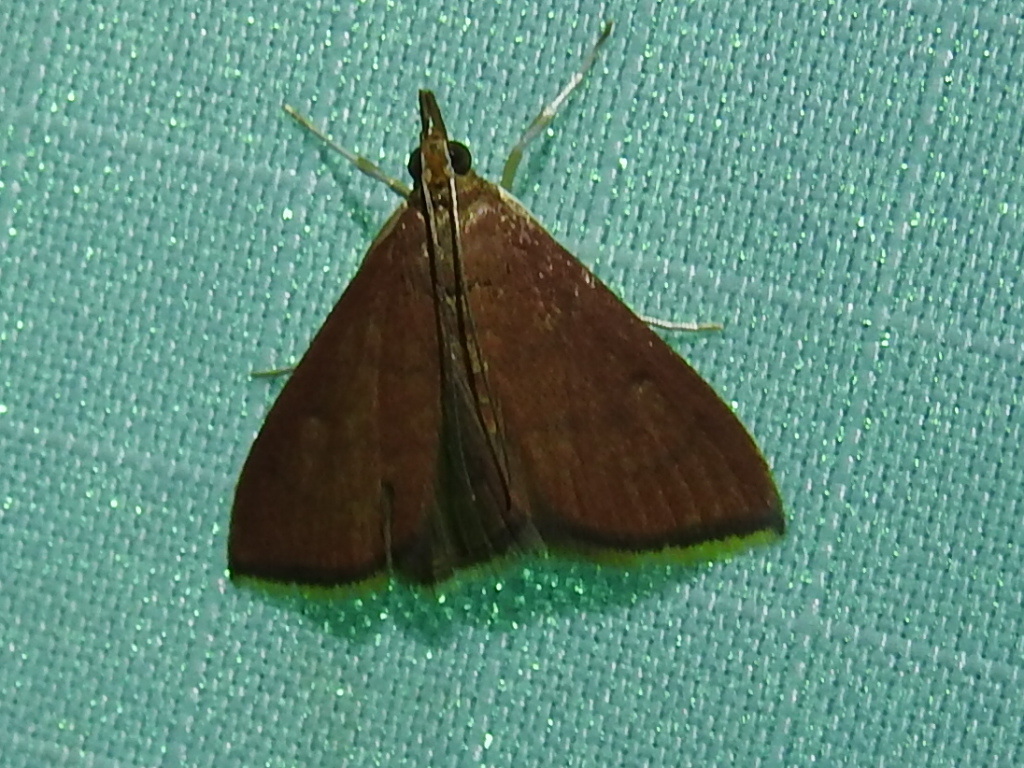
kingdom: Animalia
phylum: Arthropoda
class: Insecta
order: Lepidoptera
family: Crambidae
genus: Oenobotys
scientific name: Oenobotys texanalis
